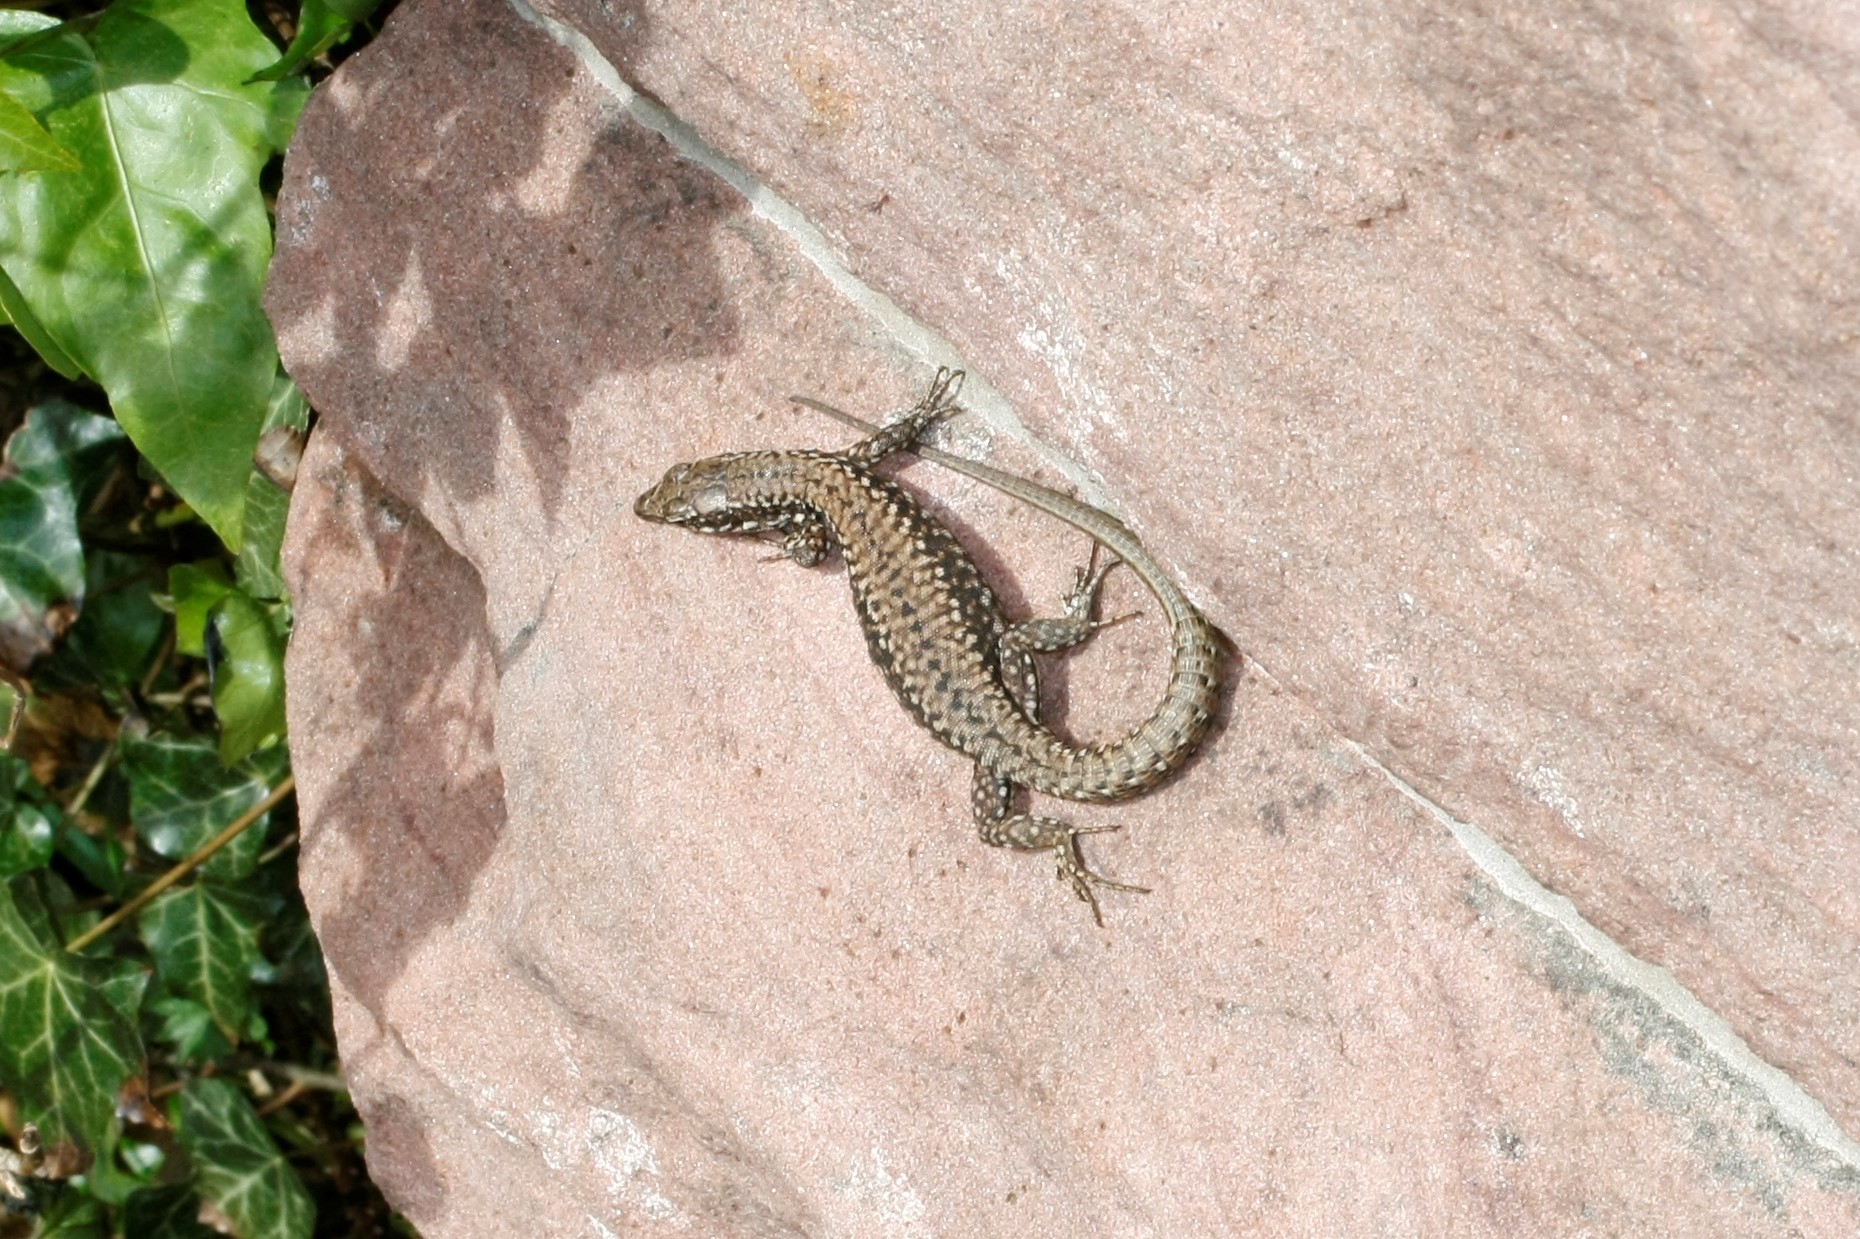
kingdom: Animalia
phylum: Chordata
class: Squamata
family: Lacertidae
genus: Podarcis
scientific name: Podarcis muralis
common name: Common wall lizard
